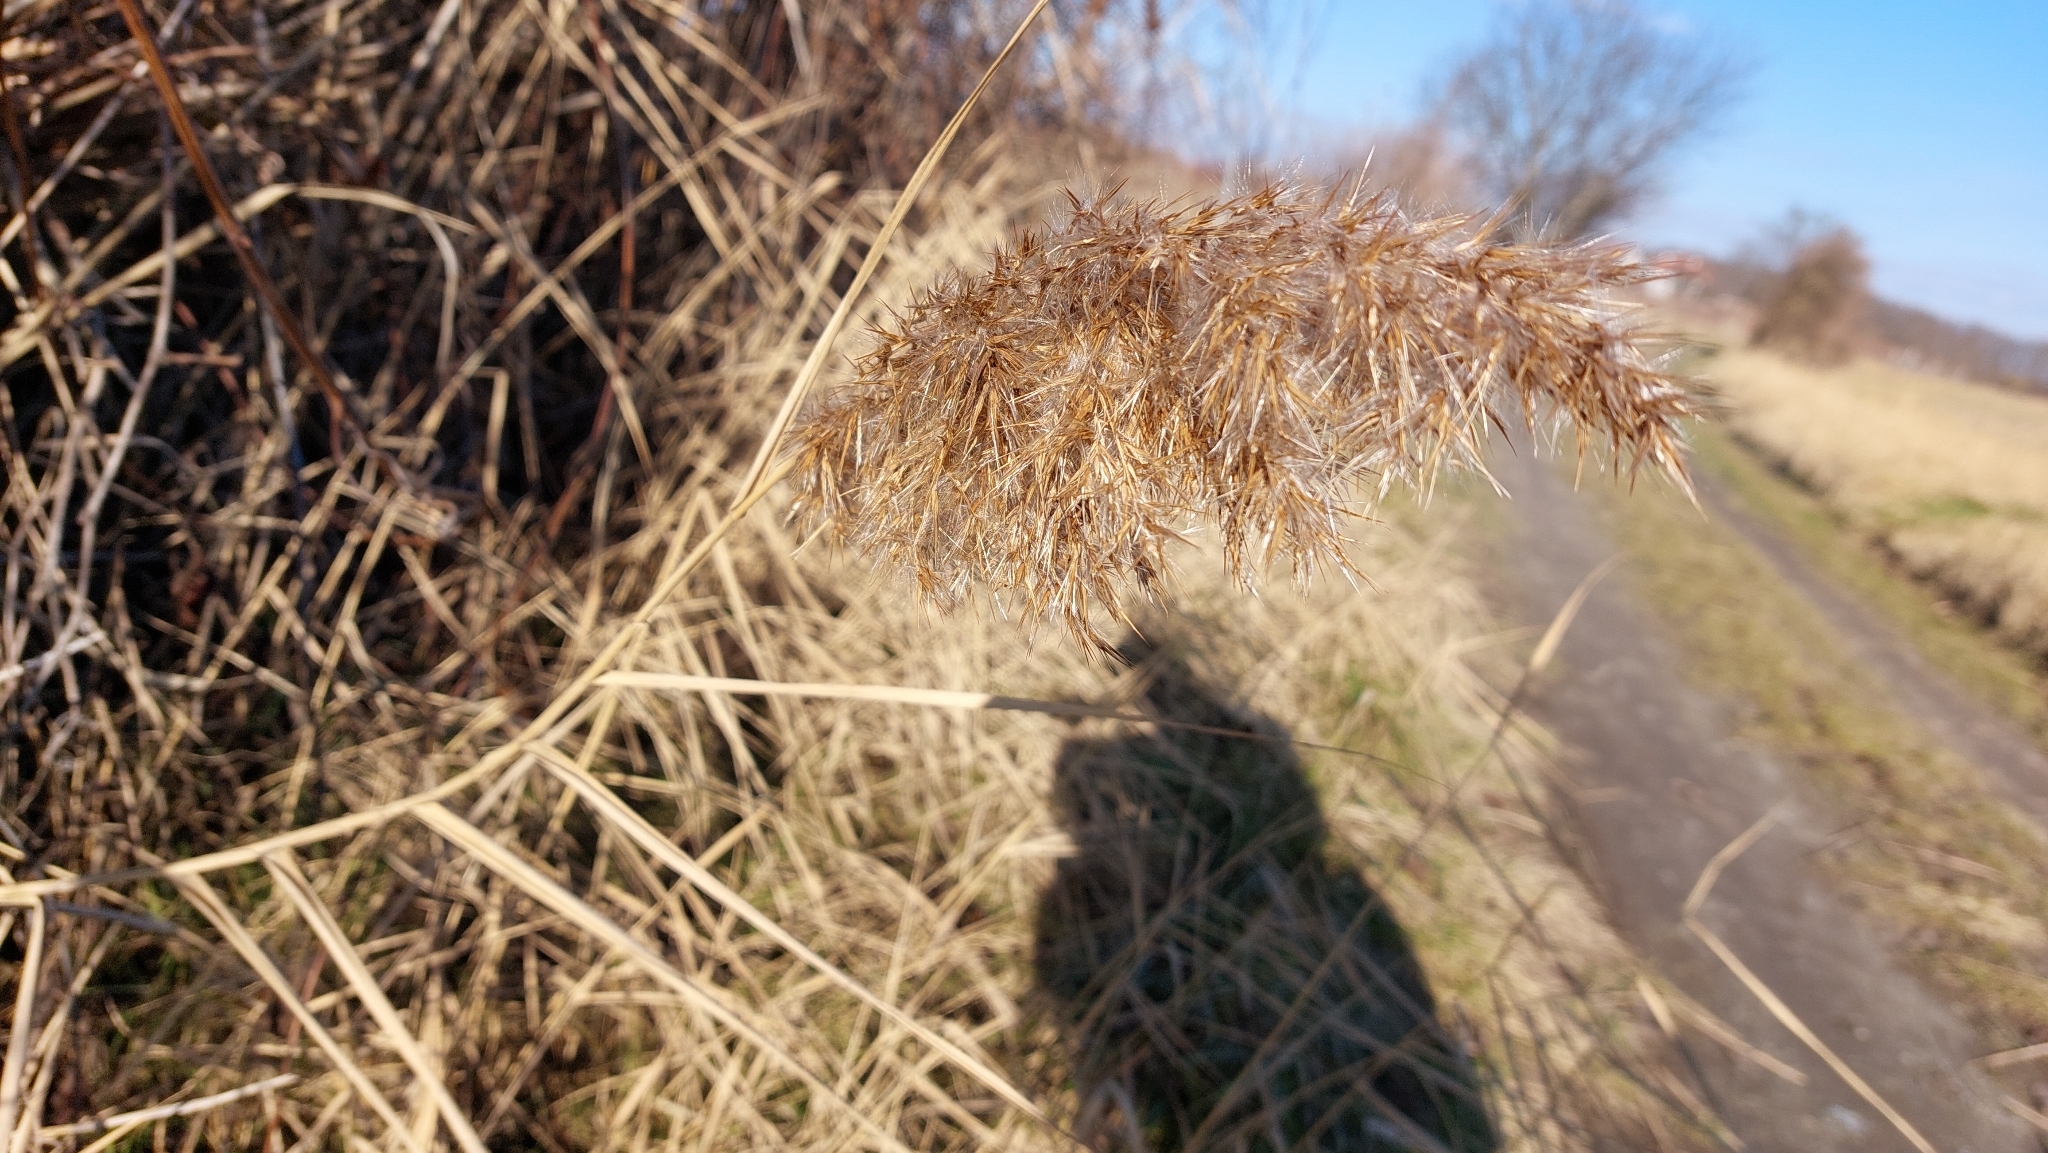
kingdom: Plantae
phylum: Tracheophyta
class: Liliopsida
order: Poales
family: Poaceae
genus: Phragmites
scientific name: Phragmites australis
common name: Common reed
